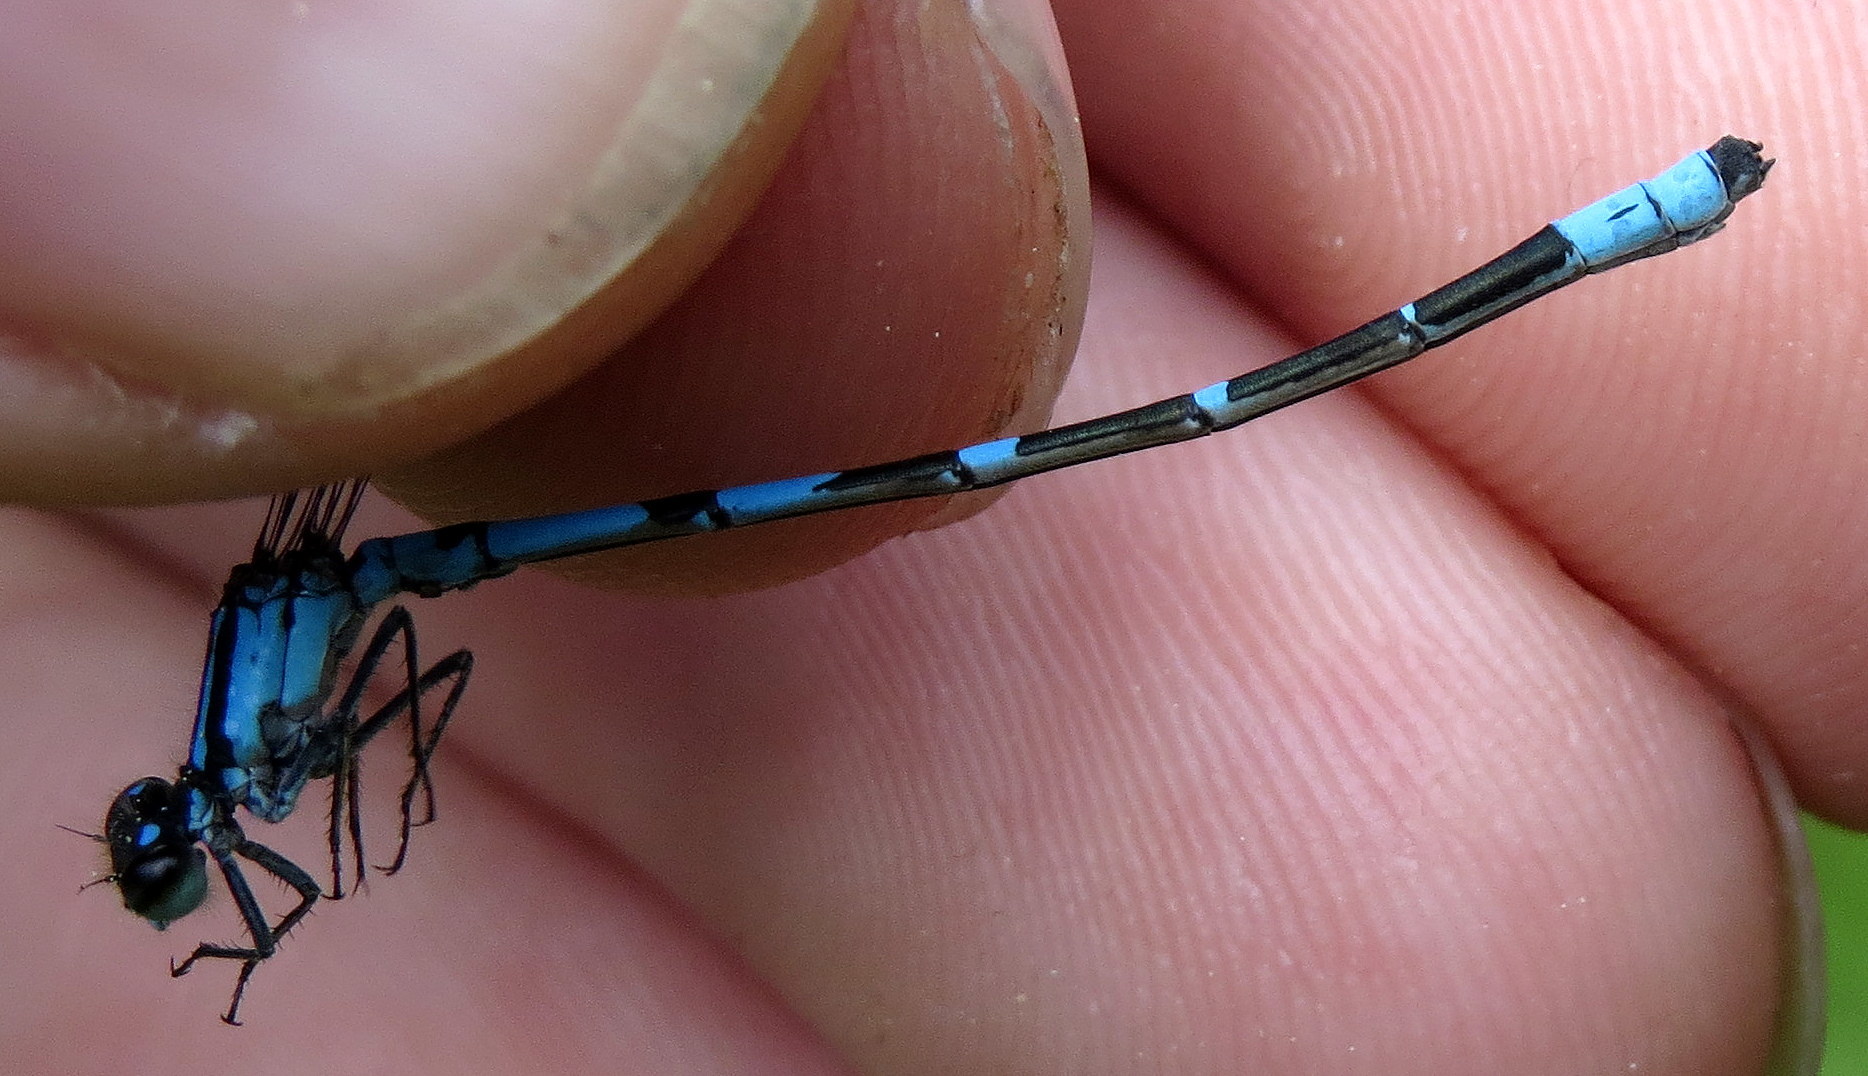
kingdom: Animalia
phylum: Arthropoda
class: Insecta
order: Odonata
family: Coenagrionidae
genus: Enallagma
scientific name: Enallagma recurvatum
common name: Pine barrens bluet
